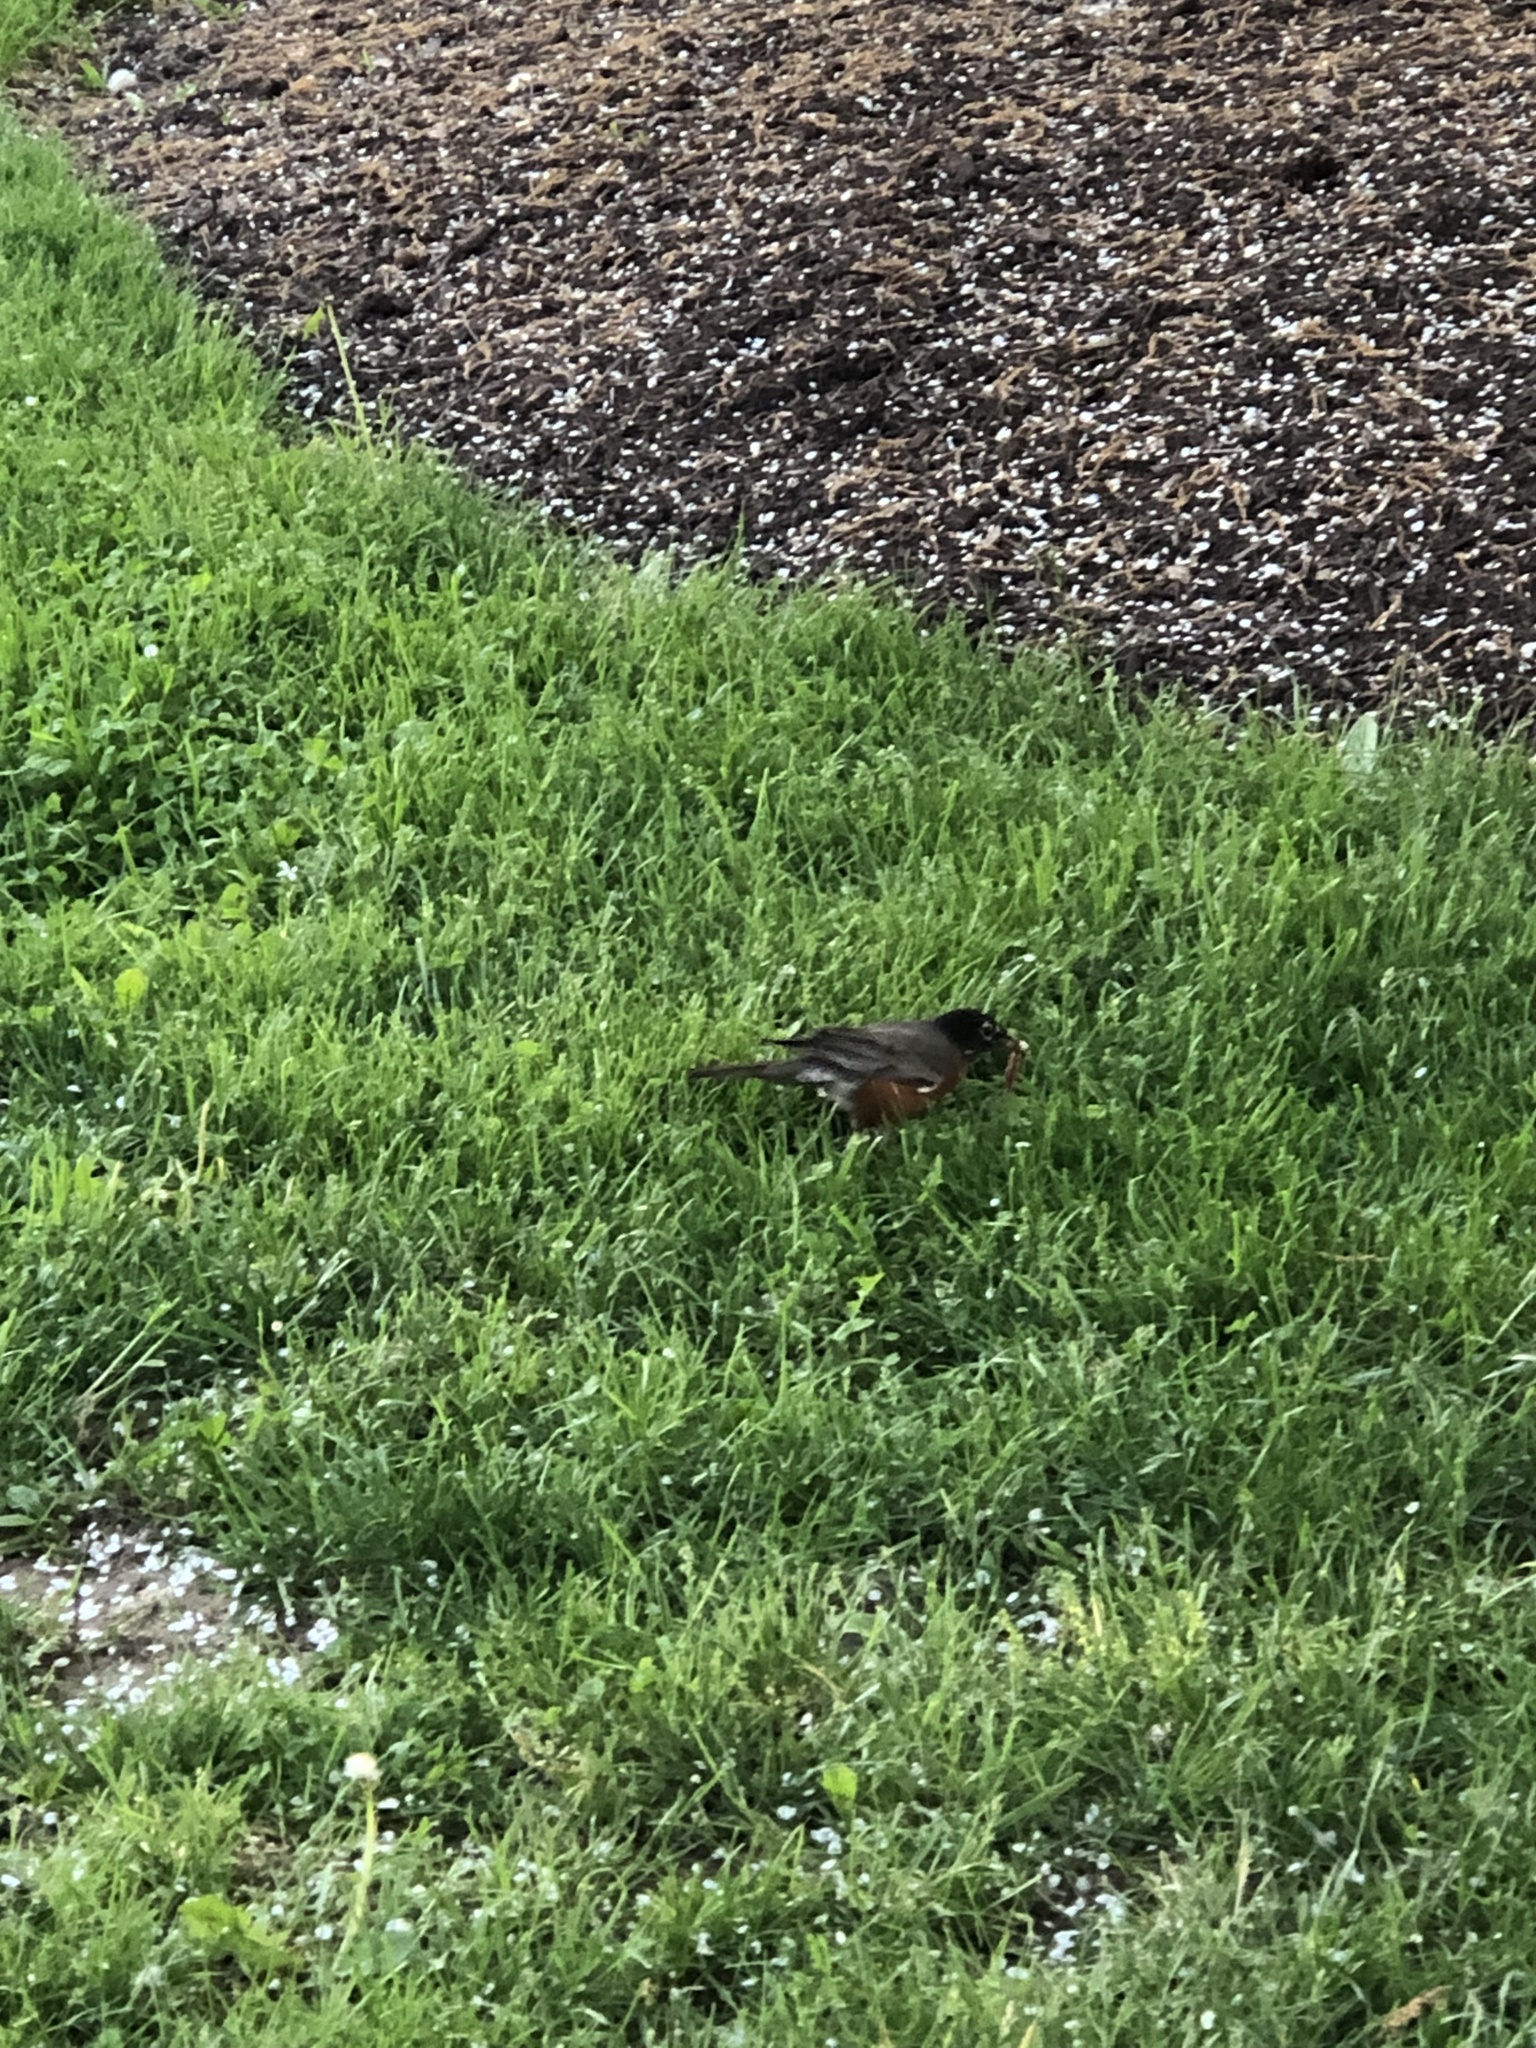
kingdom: Animalia
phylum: Chordata
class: Aves
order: Passeriformes
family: Turdidae
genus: Turdus
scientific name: Turdus migratorius
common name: American robin
